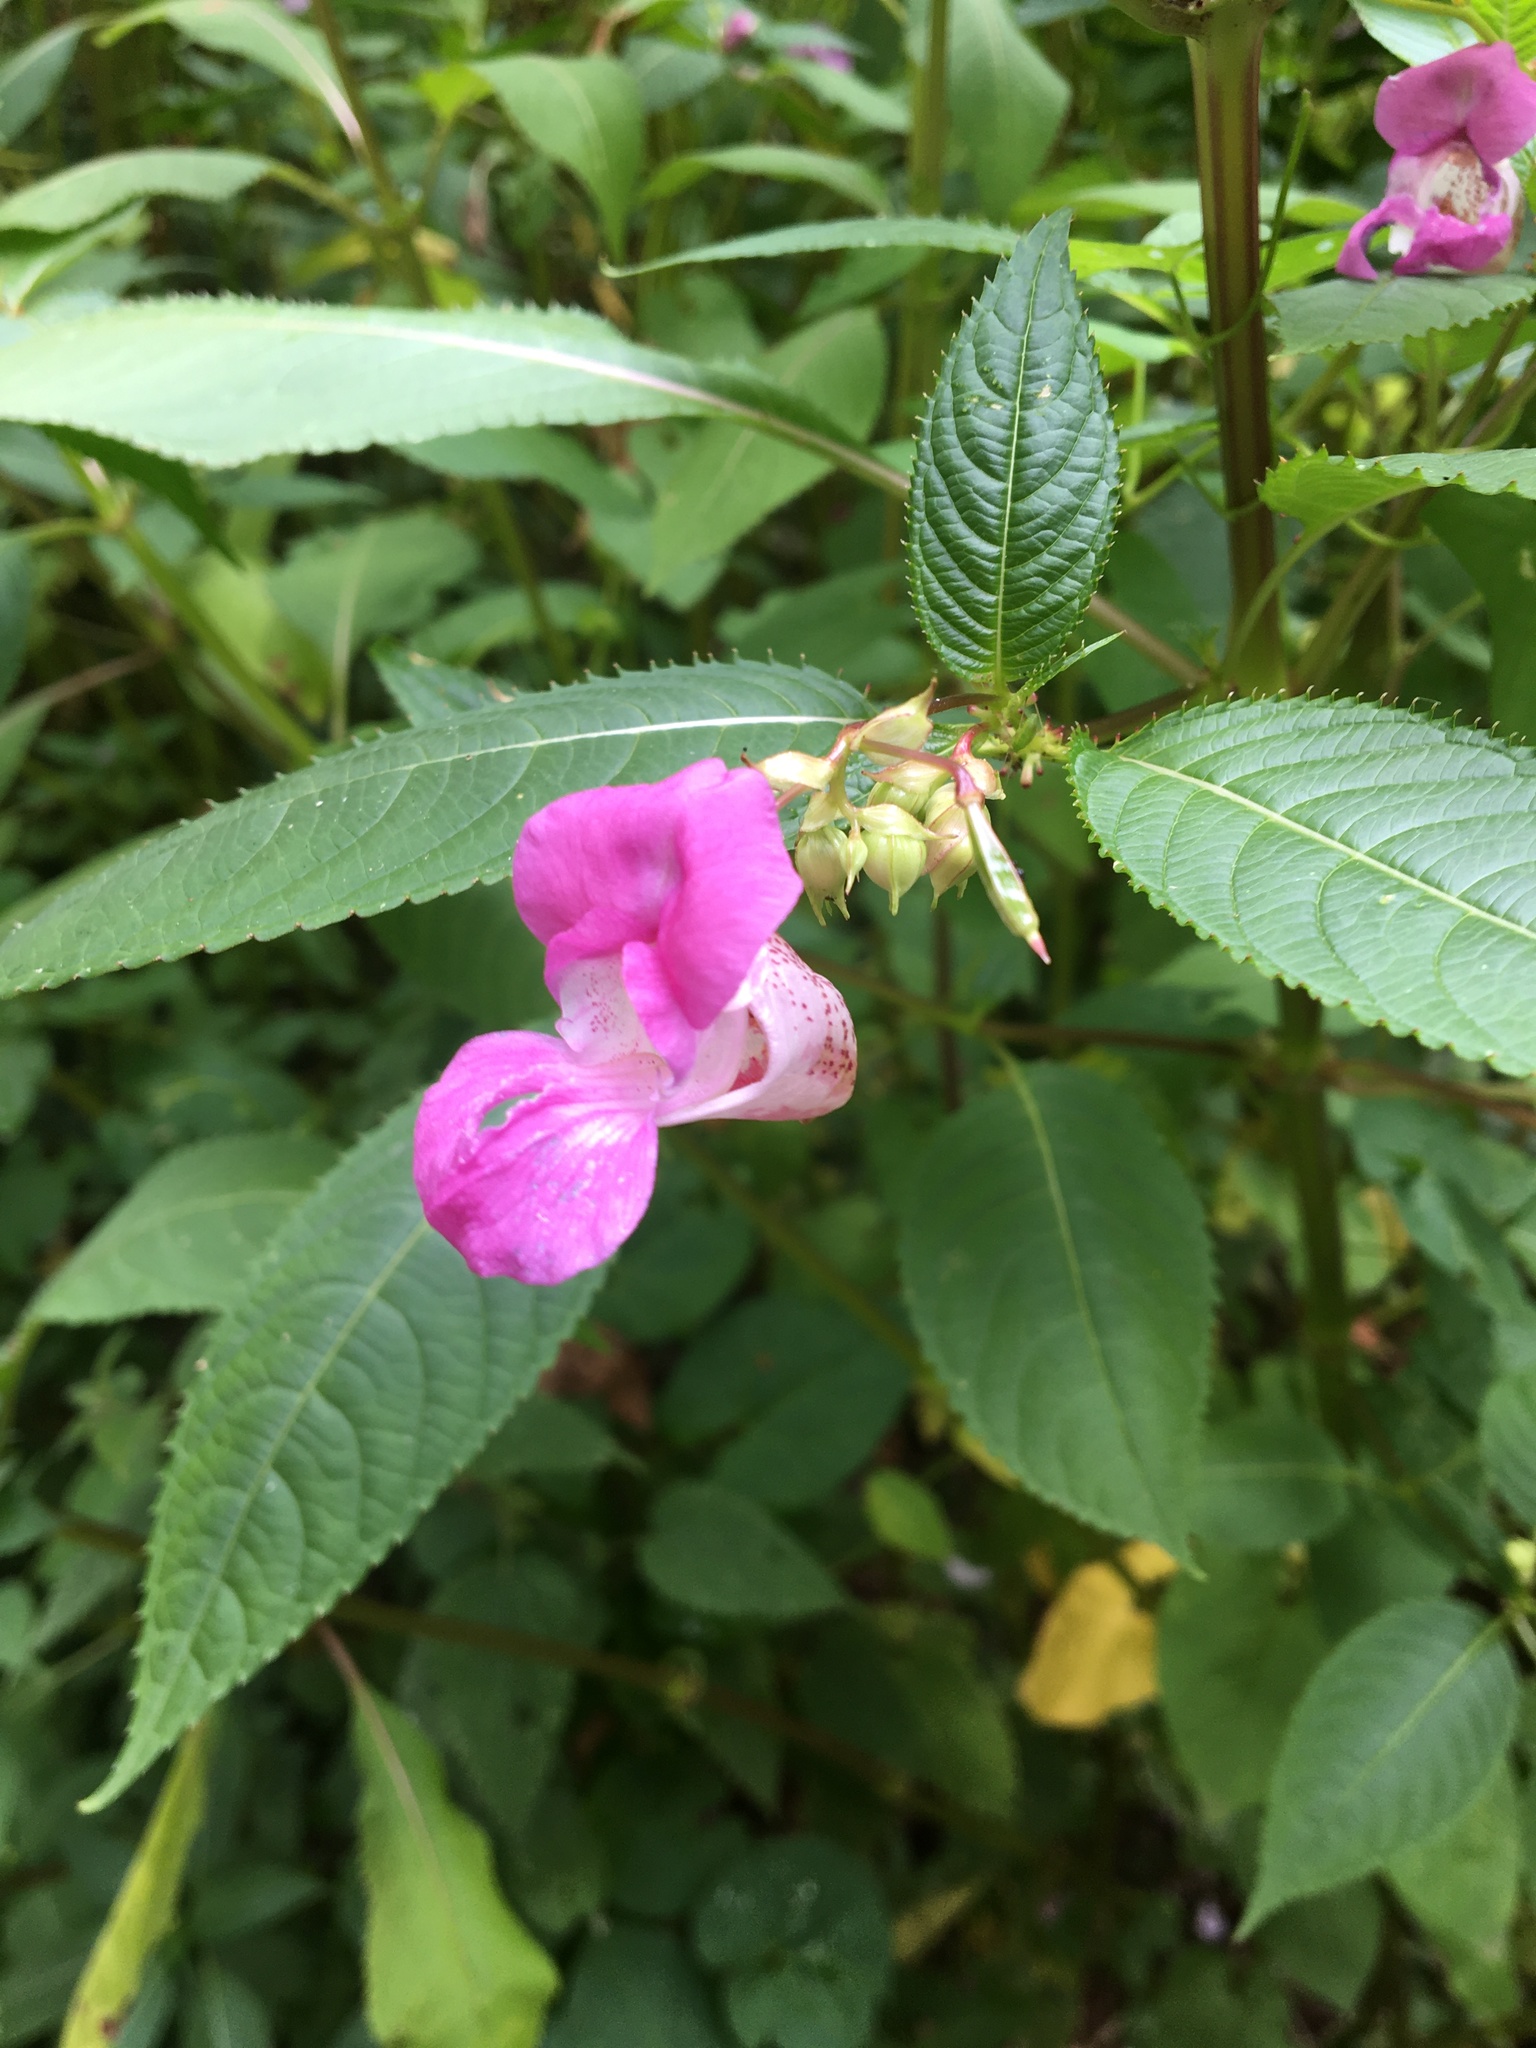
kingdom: Plantae
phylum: Tracheophyta
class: Magnoliopsida
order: Ericales
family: Balsaminaceae
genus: Impatiens
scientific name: Impatiens glandulifera
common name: Himalayan balsam
